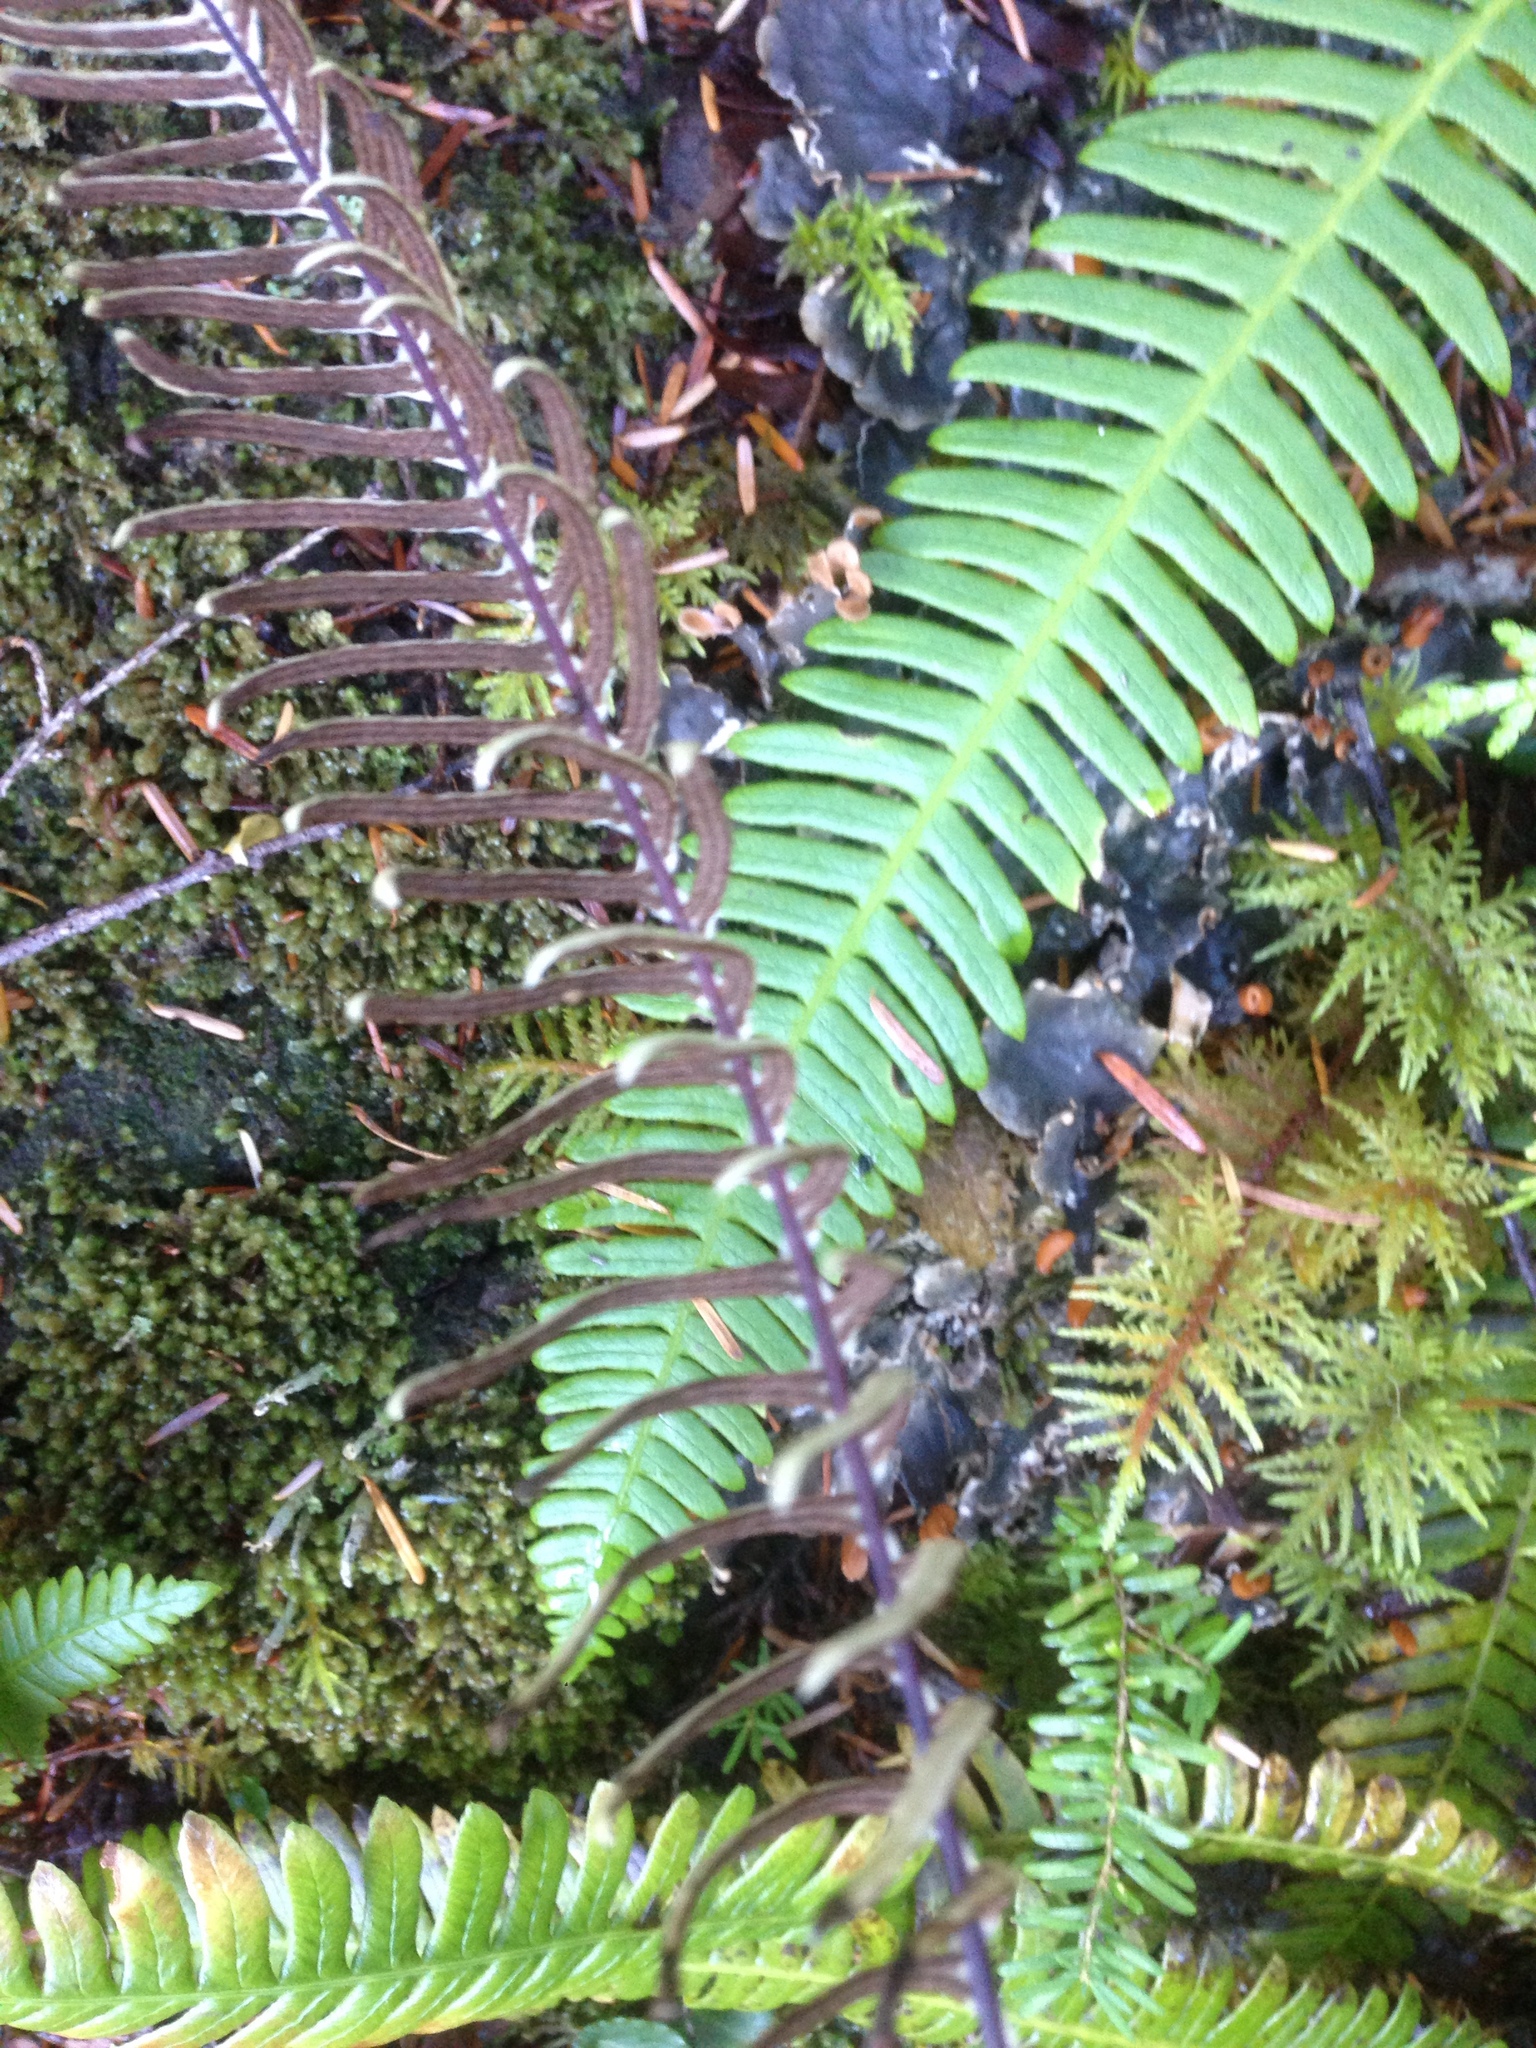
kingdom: Plantae
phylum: Tracheophyta
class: Polypodiopsida
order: Polypodiales
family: Blechnaceae
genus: Struthiopteris
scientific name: Struthiopteris spicant
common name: Deer fern
